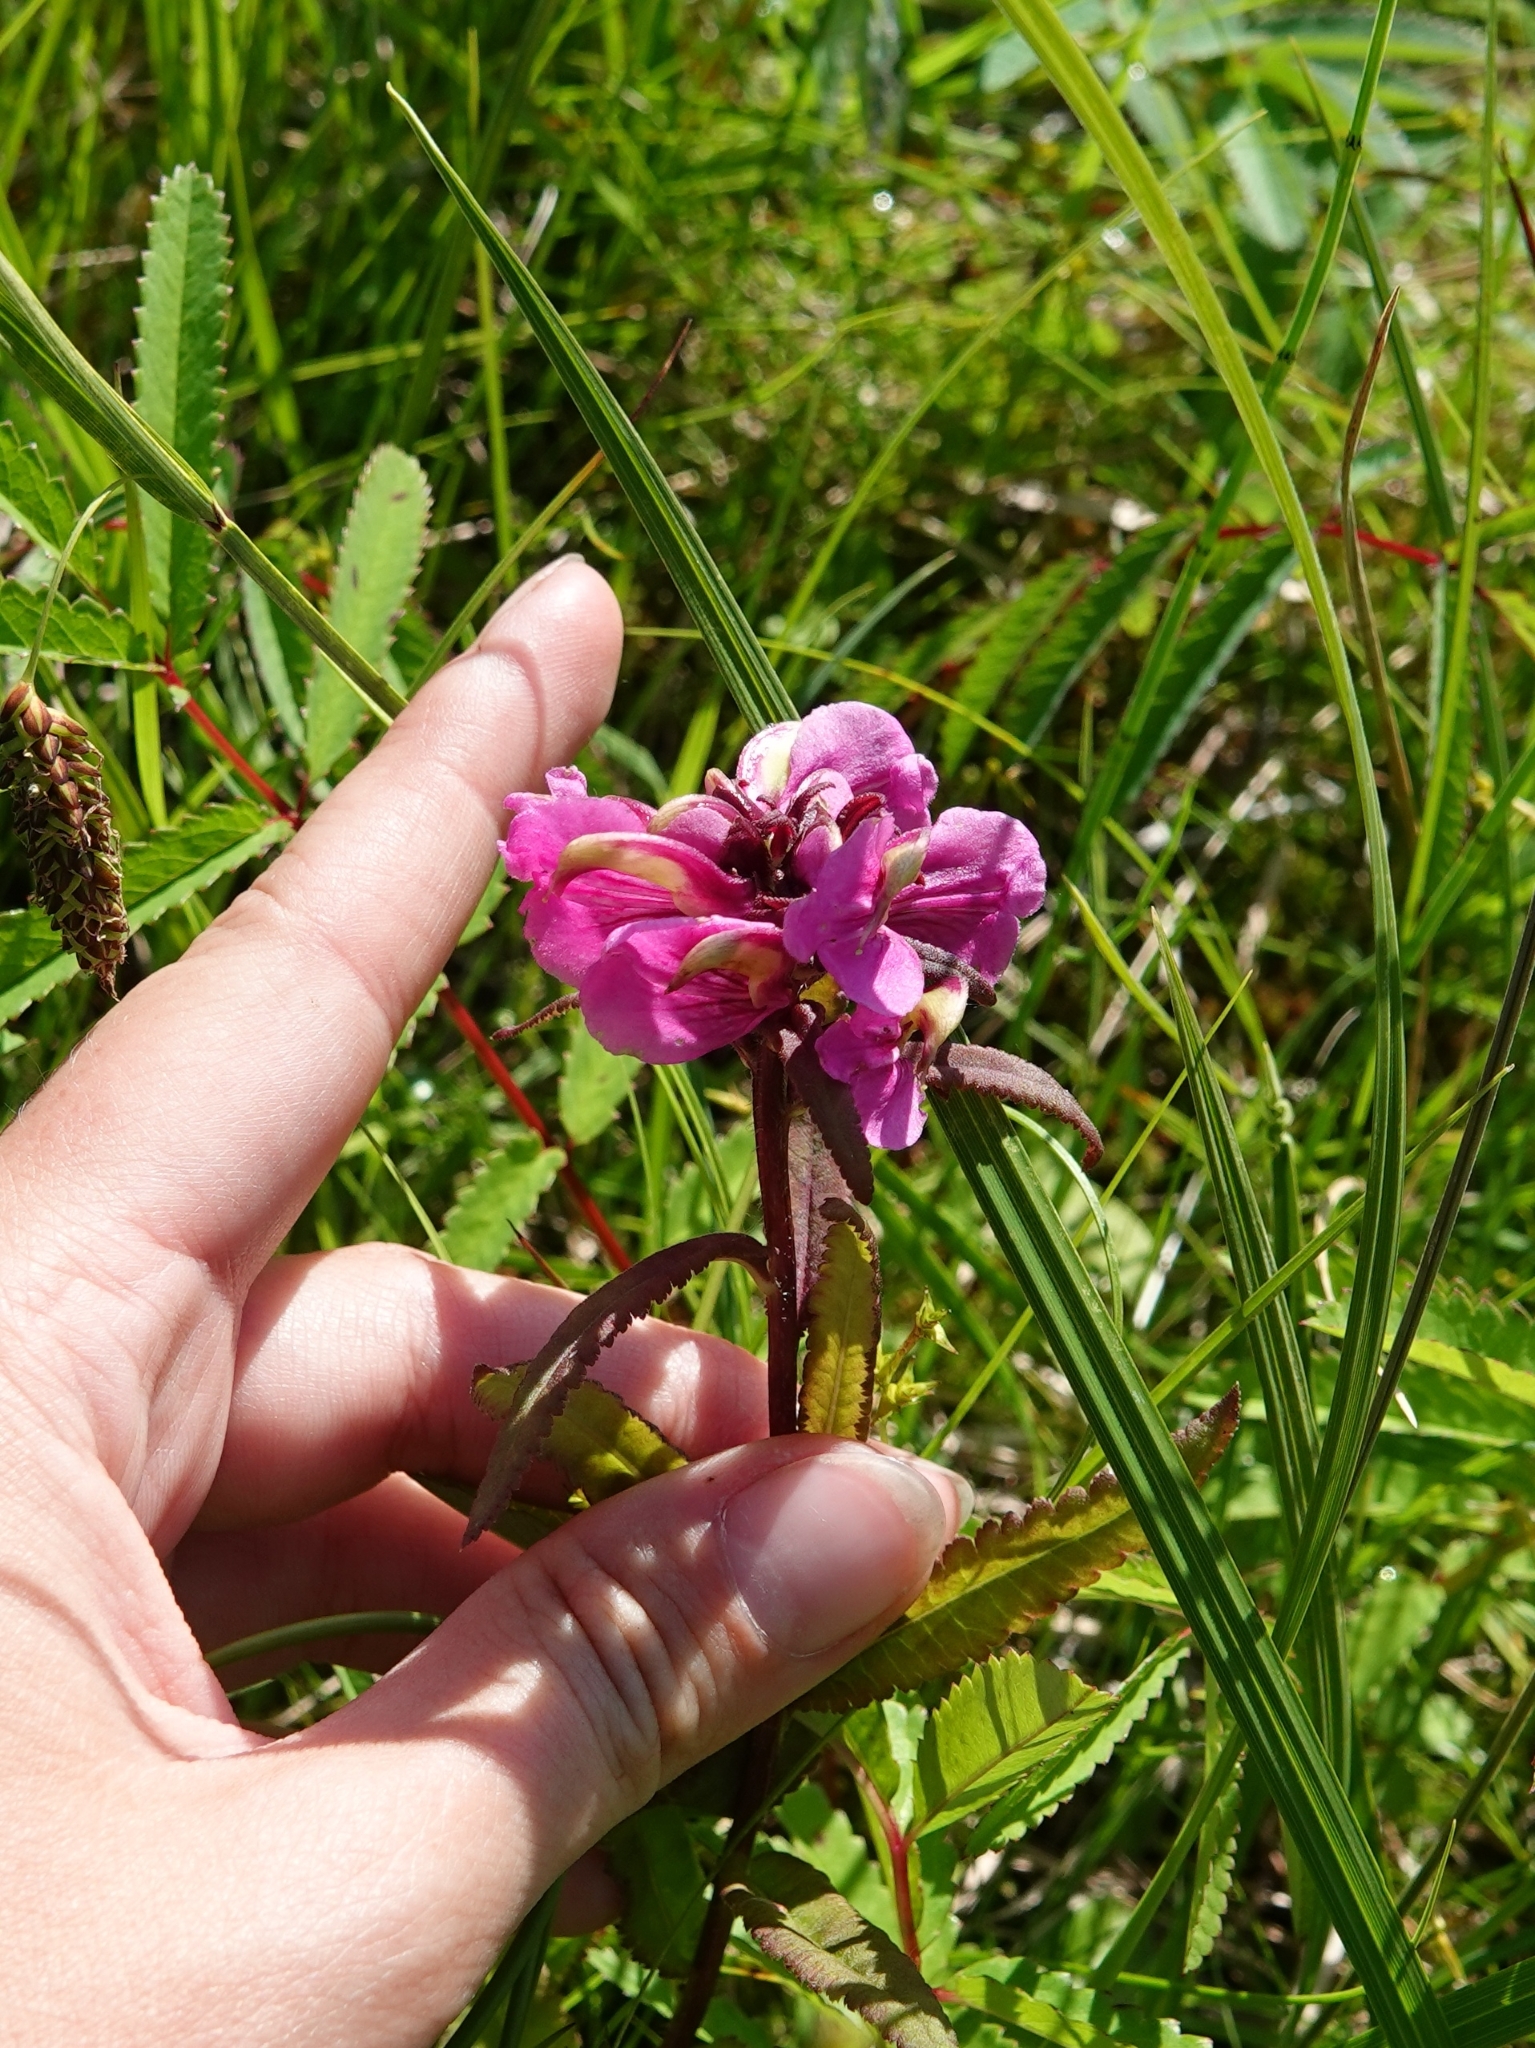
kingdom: Plantae
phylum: Tracheophyta
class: Magnoliopsida
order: Lamiales
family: Orobanchaceae
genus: Pedicularis
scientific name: Pedicularis resupinata
